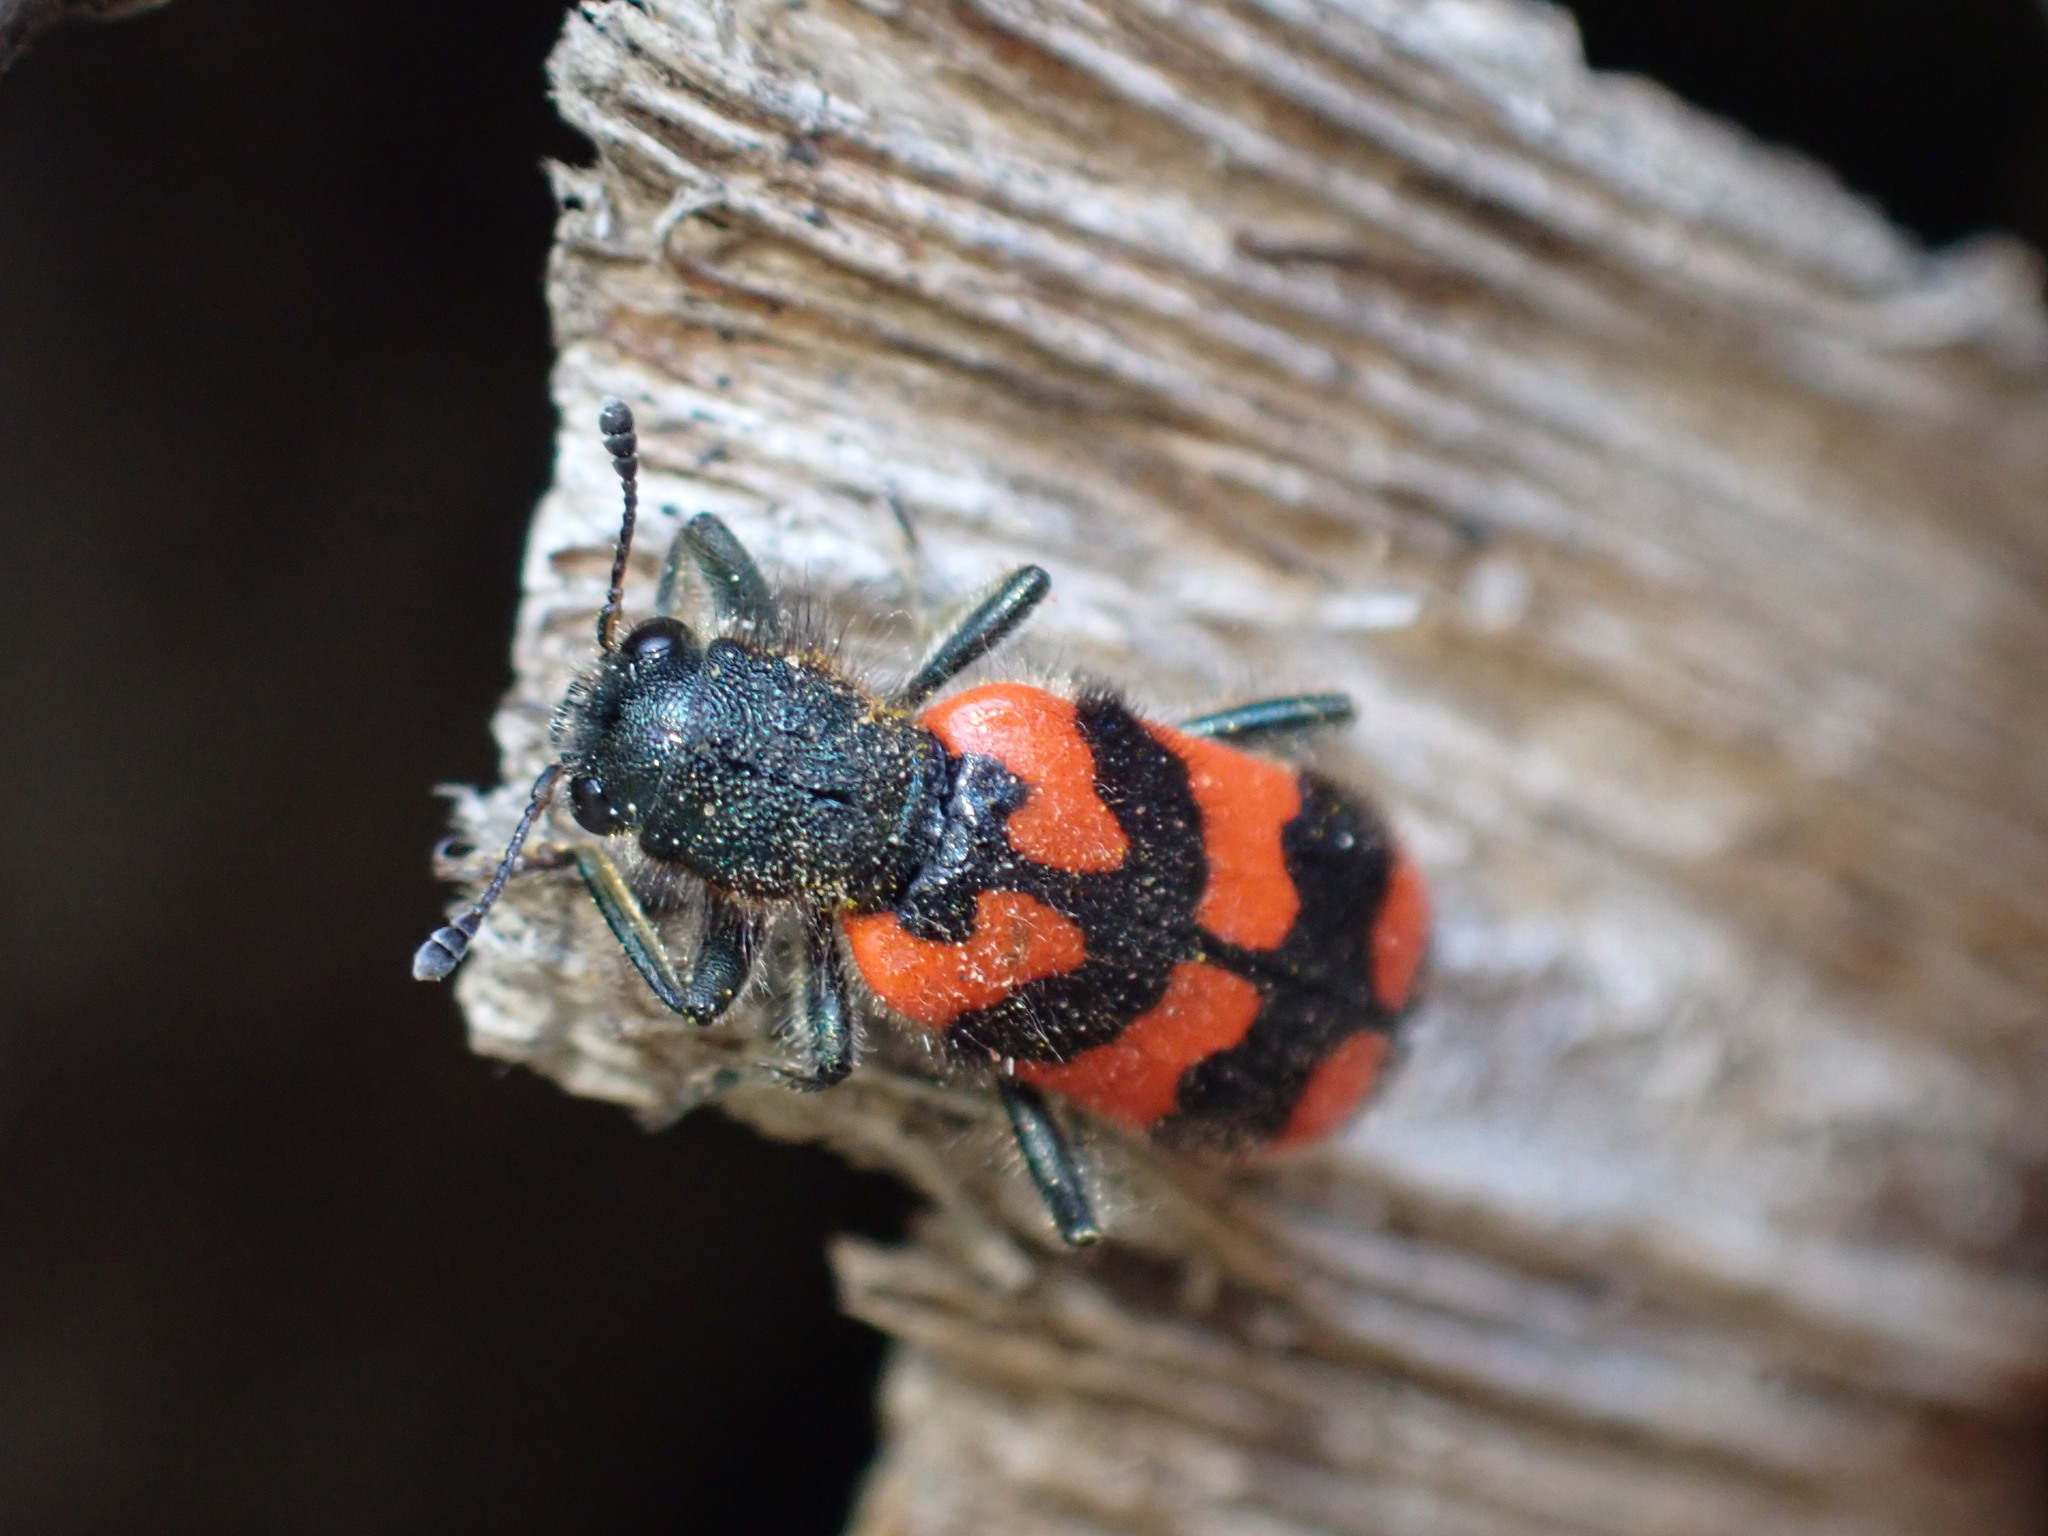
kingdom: Animalia
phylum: Arthropoda
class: Insecta
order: Coleoptera
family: Cleridae
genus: Trichodes
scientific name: Trichodes alvearius
